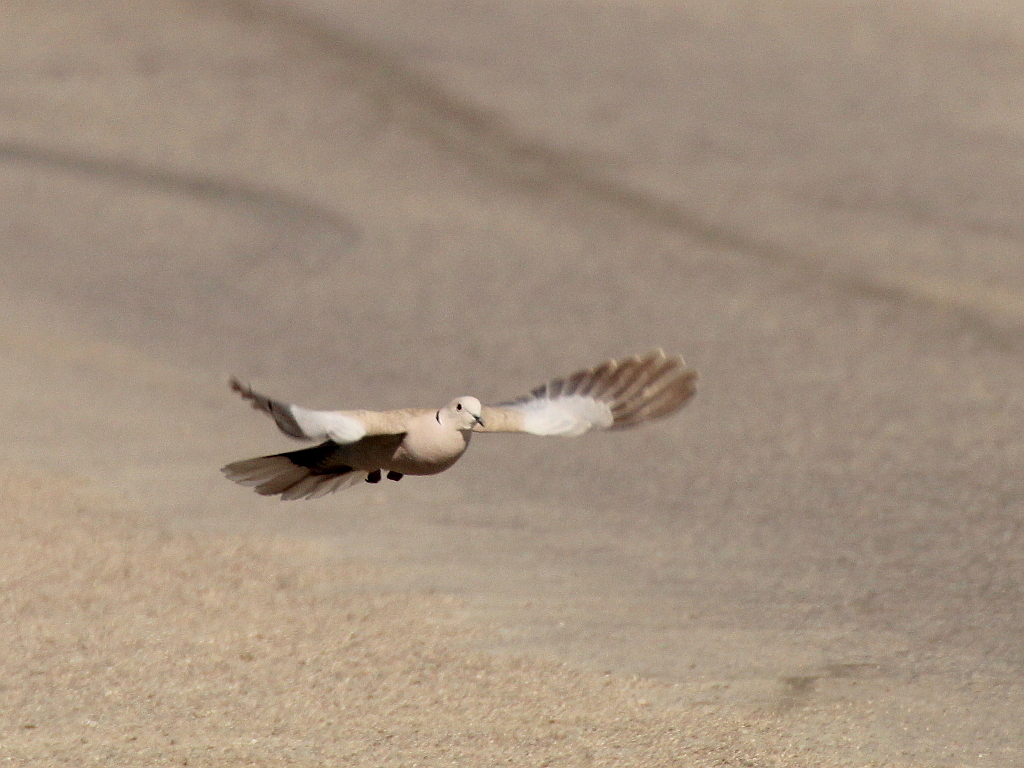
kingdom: Animalia
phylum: Chordata
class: Aves
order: Columbiformes
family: Columbidae
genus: Streptopelia
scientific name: Streptopelia decaocto
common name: Eurasian collared dove
